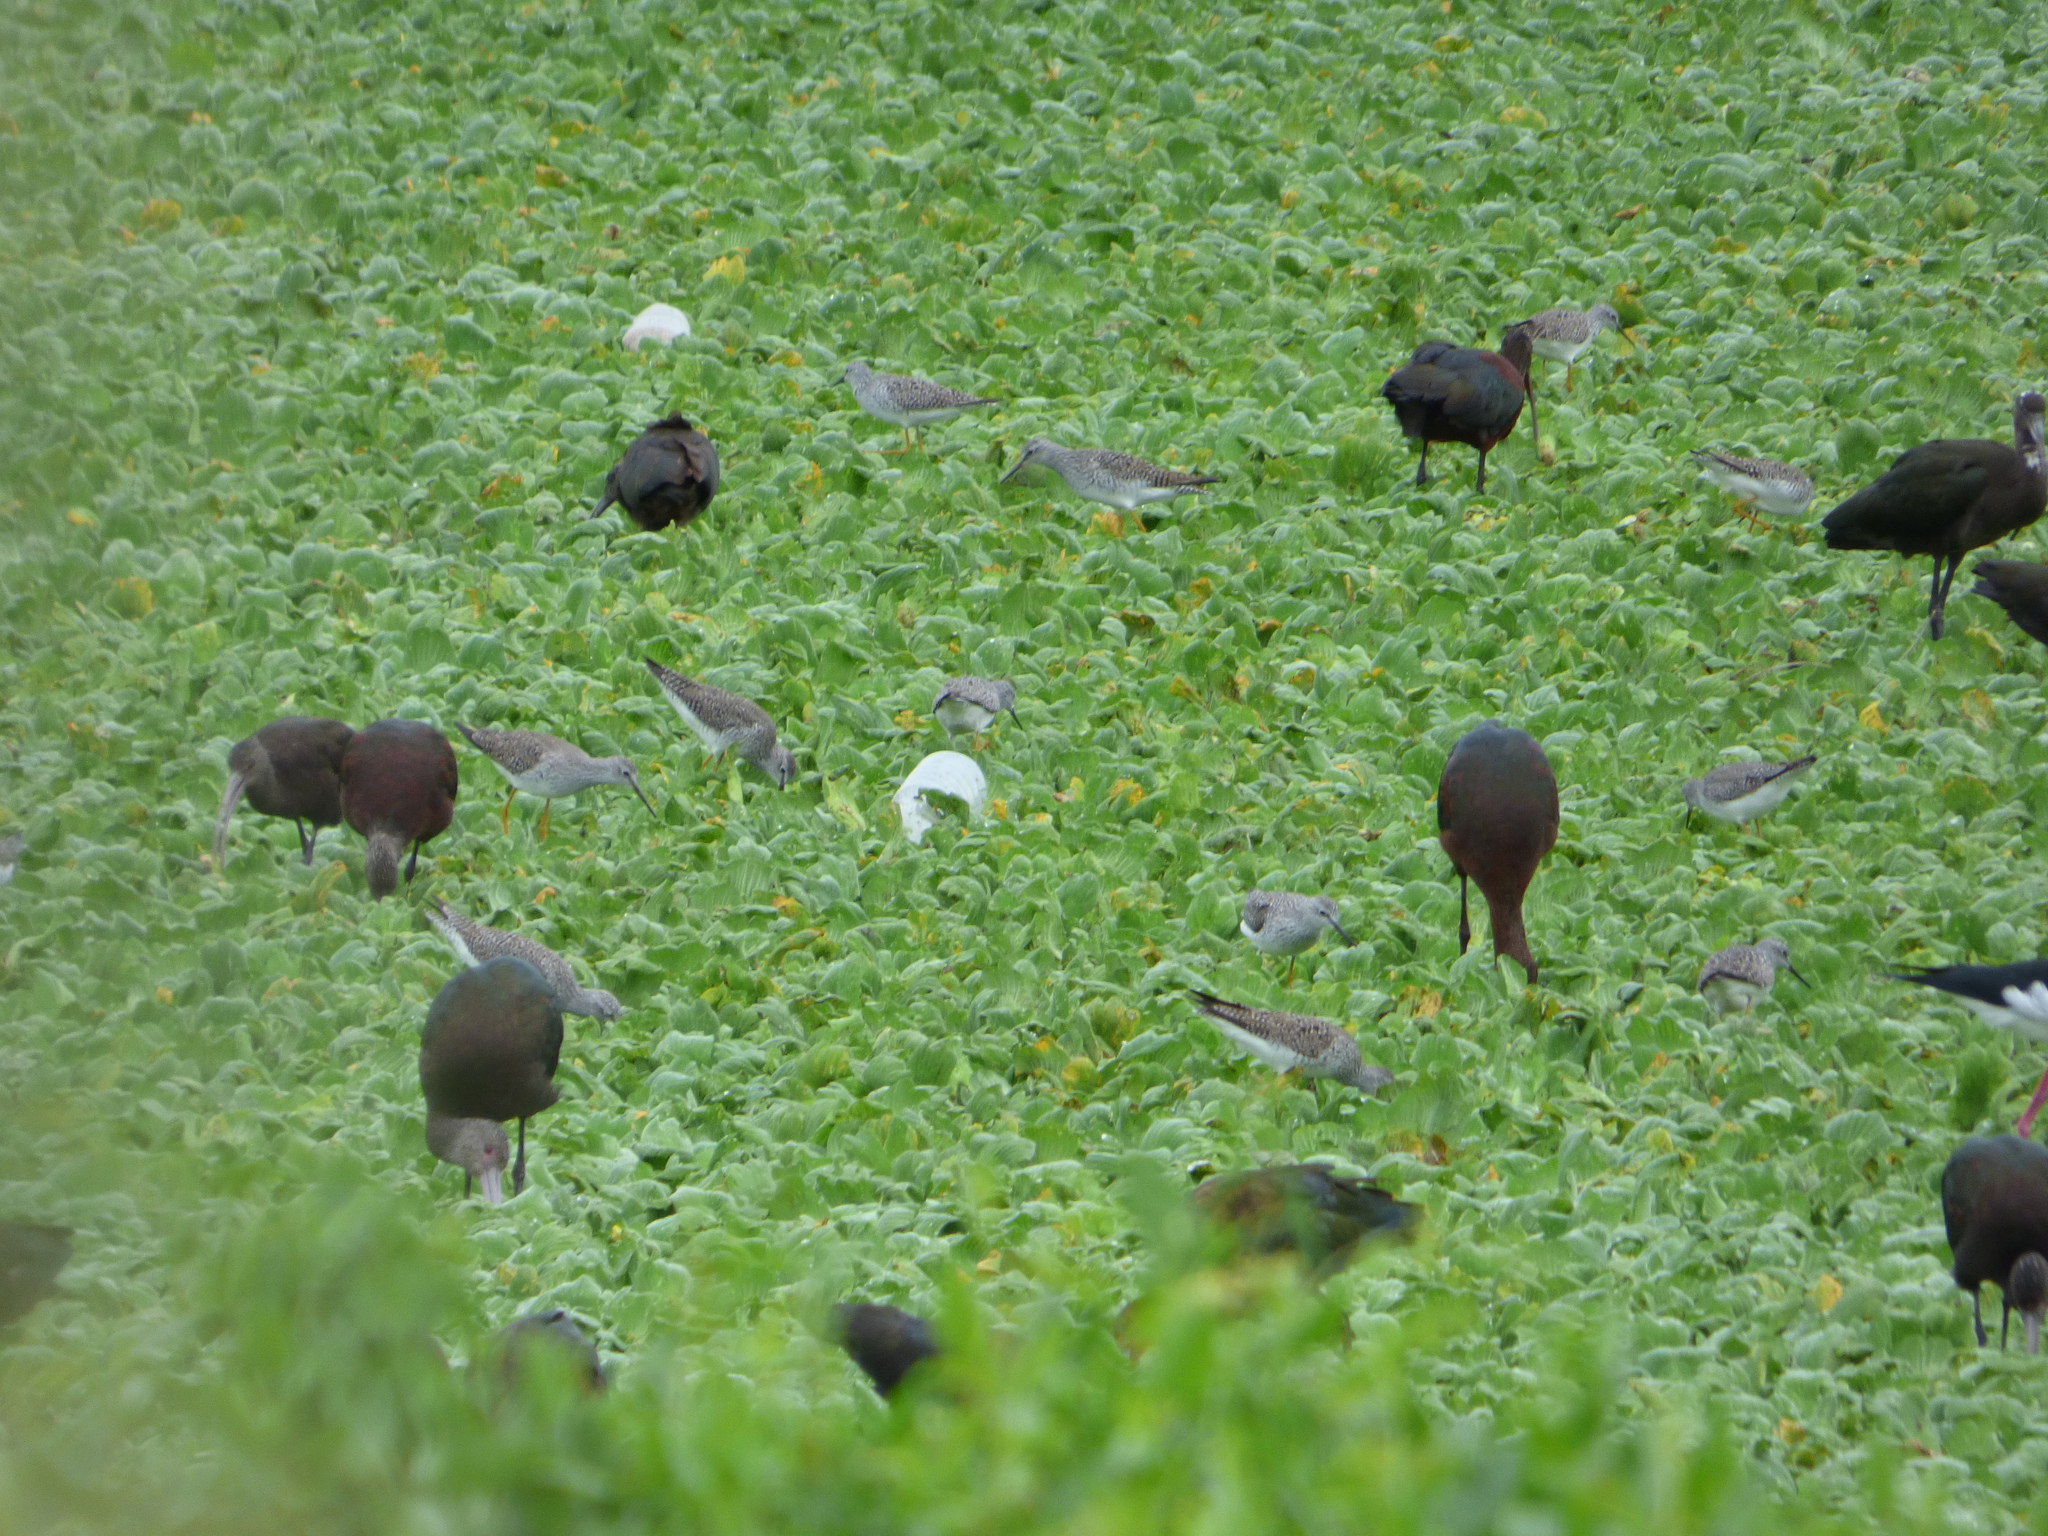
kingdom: Animalia
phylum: Chordata
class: Aves
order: Charadriiformes
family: Scolopacidae
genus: Tringa
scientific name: Tringa flavipes
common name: Lesser yellowlegs
